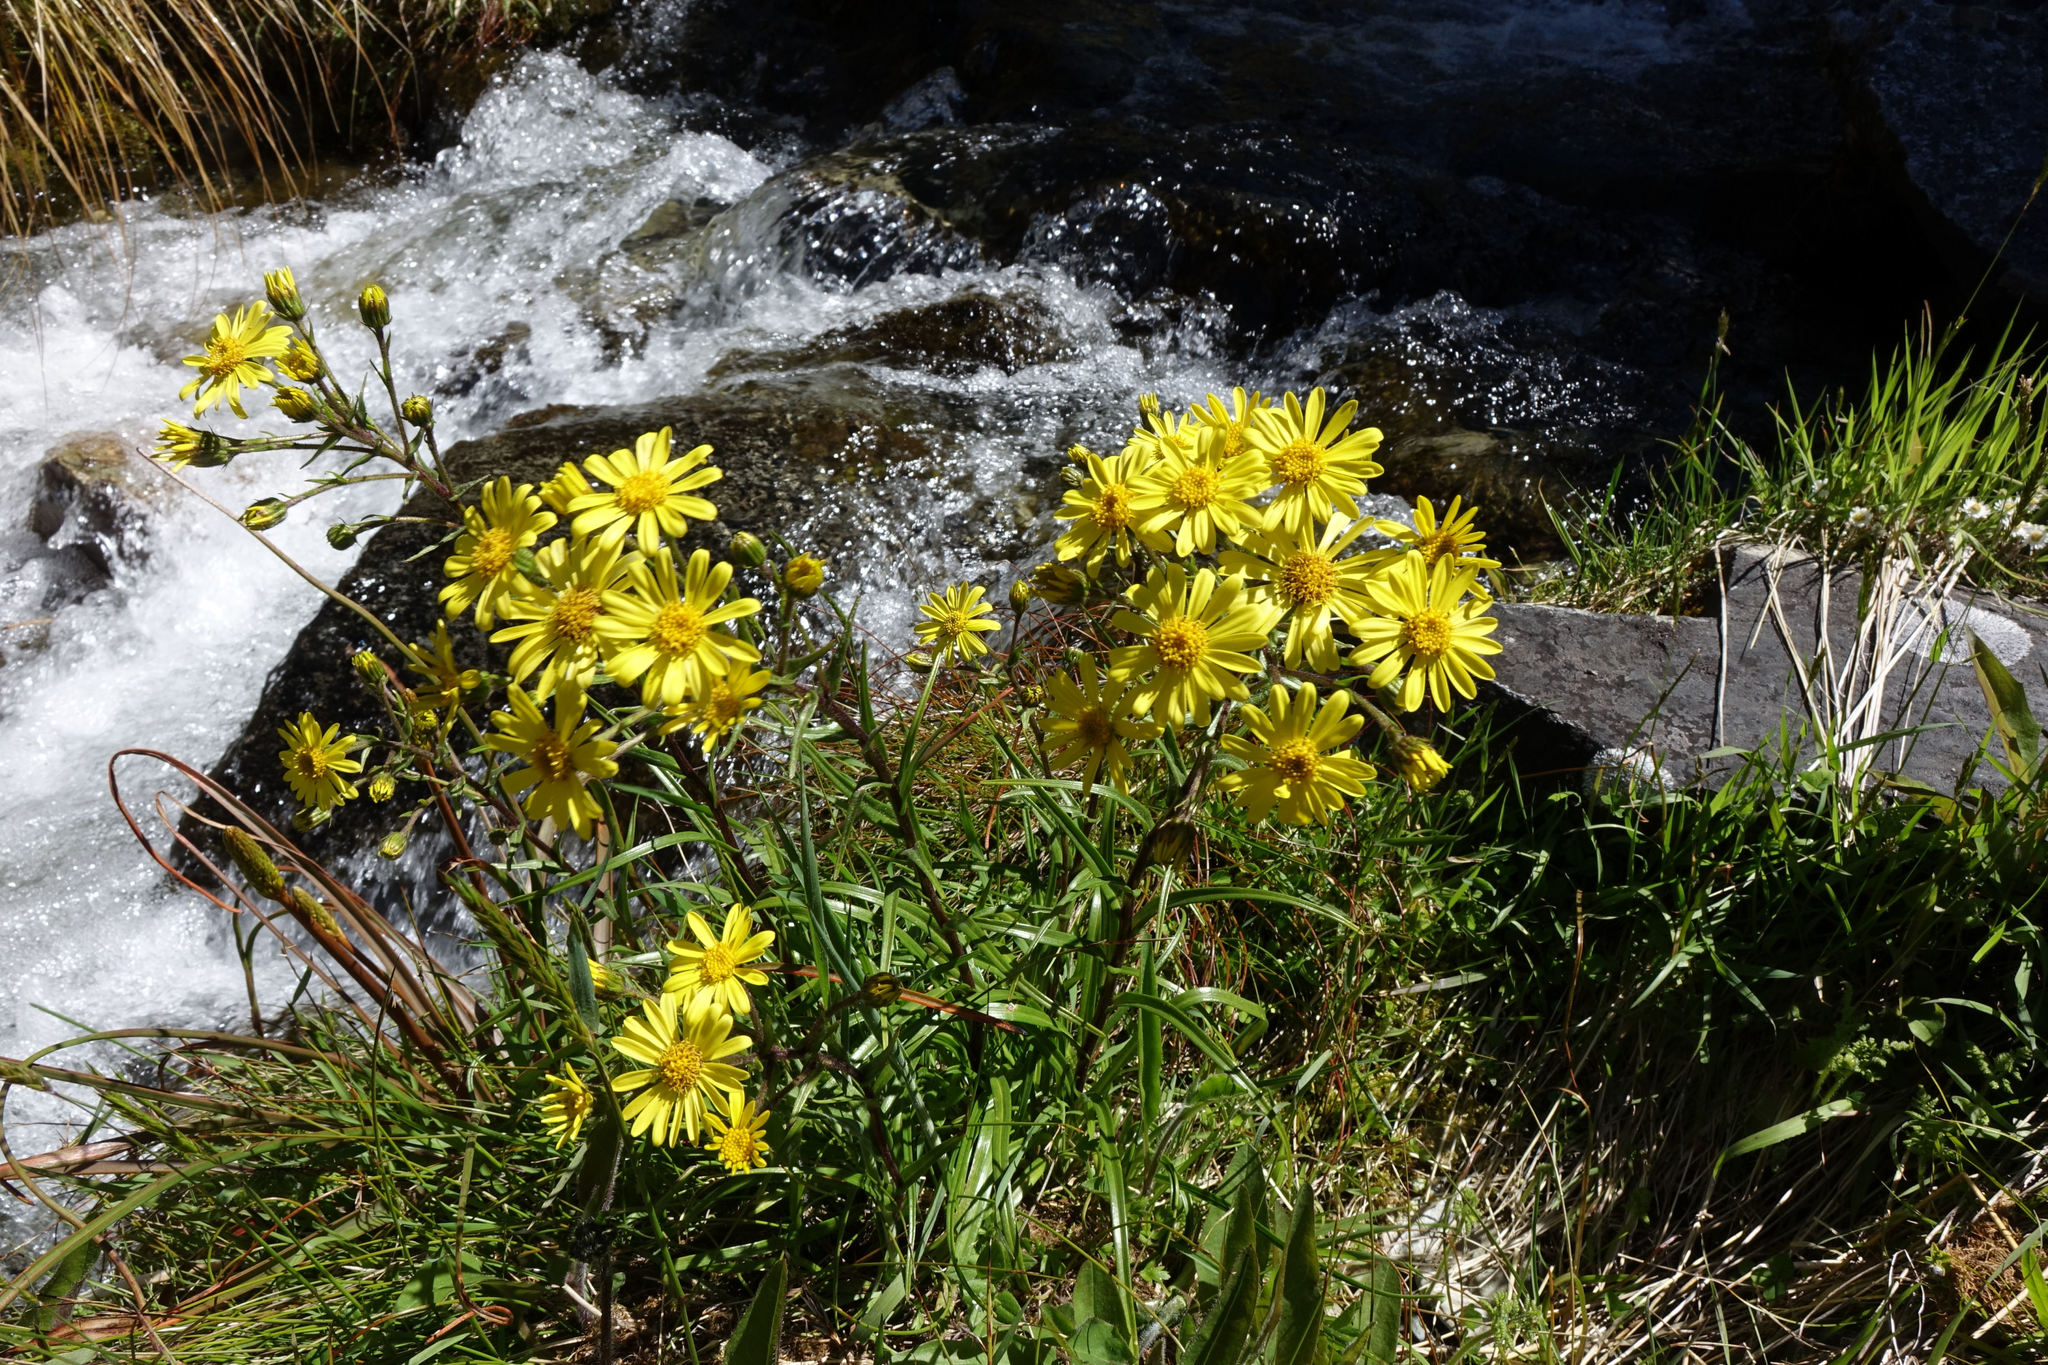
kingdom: Plantae
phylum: Tracheophyta
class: Magnoliopsida
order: Asterales
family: Asteraceae
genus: Dolichoglottis
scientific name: Dolichoglottis lyallii
